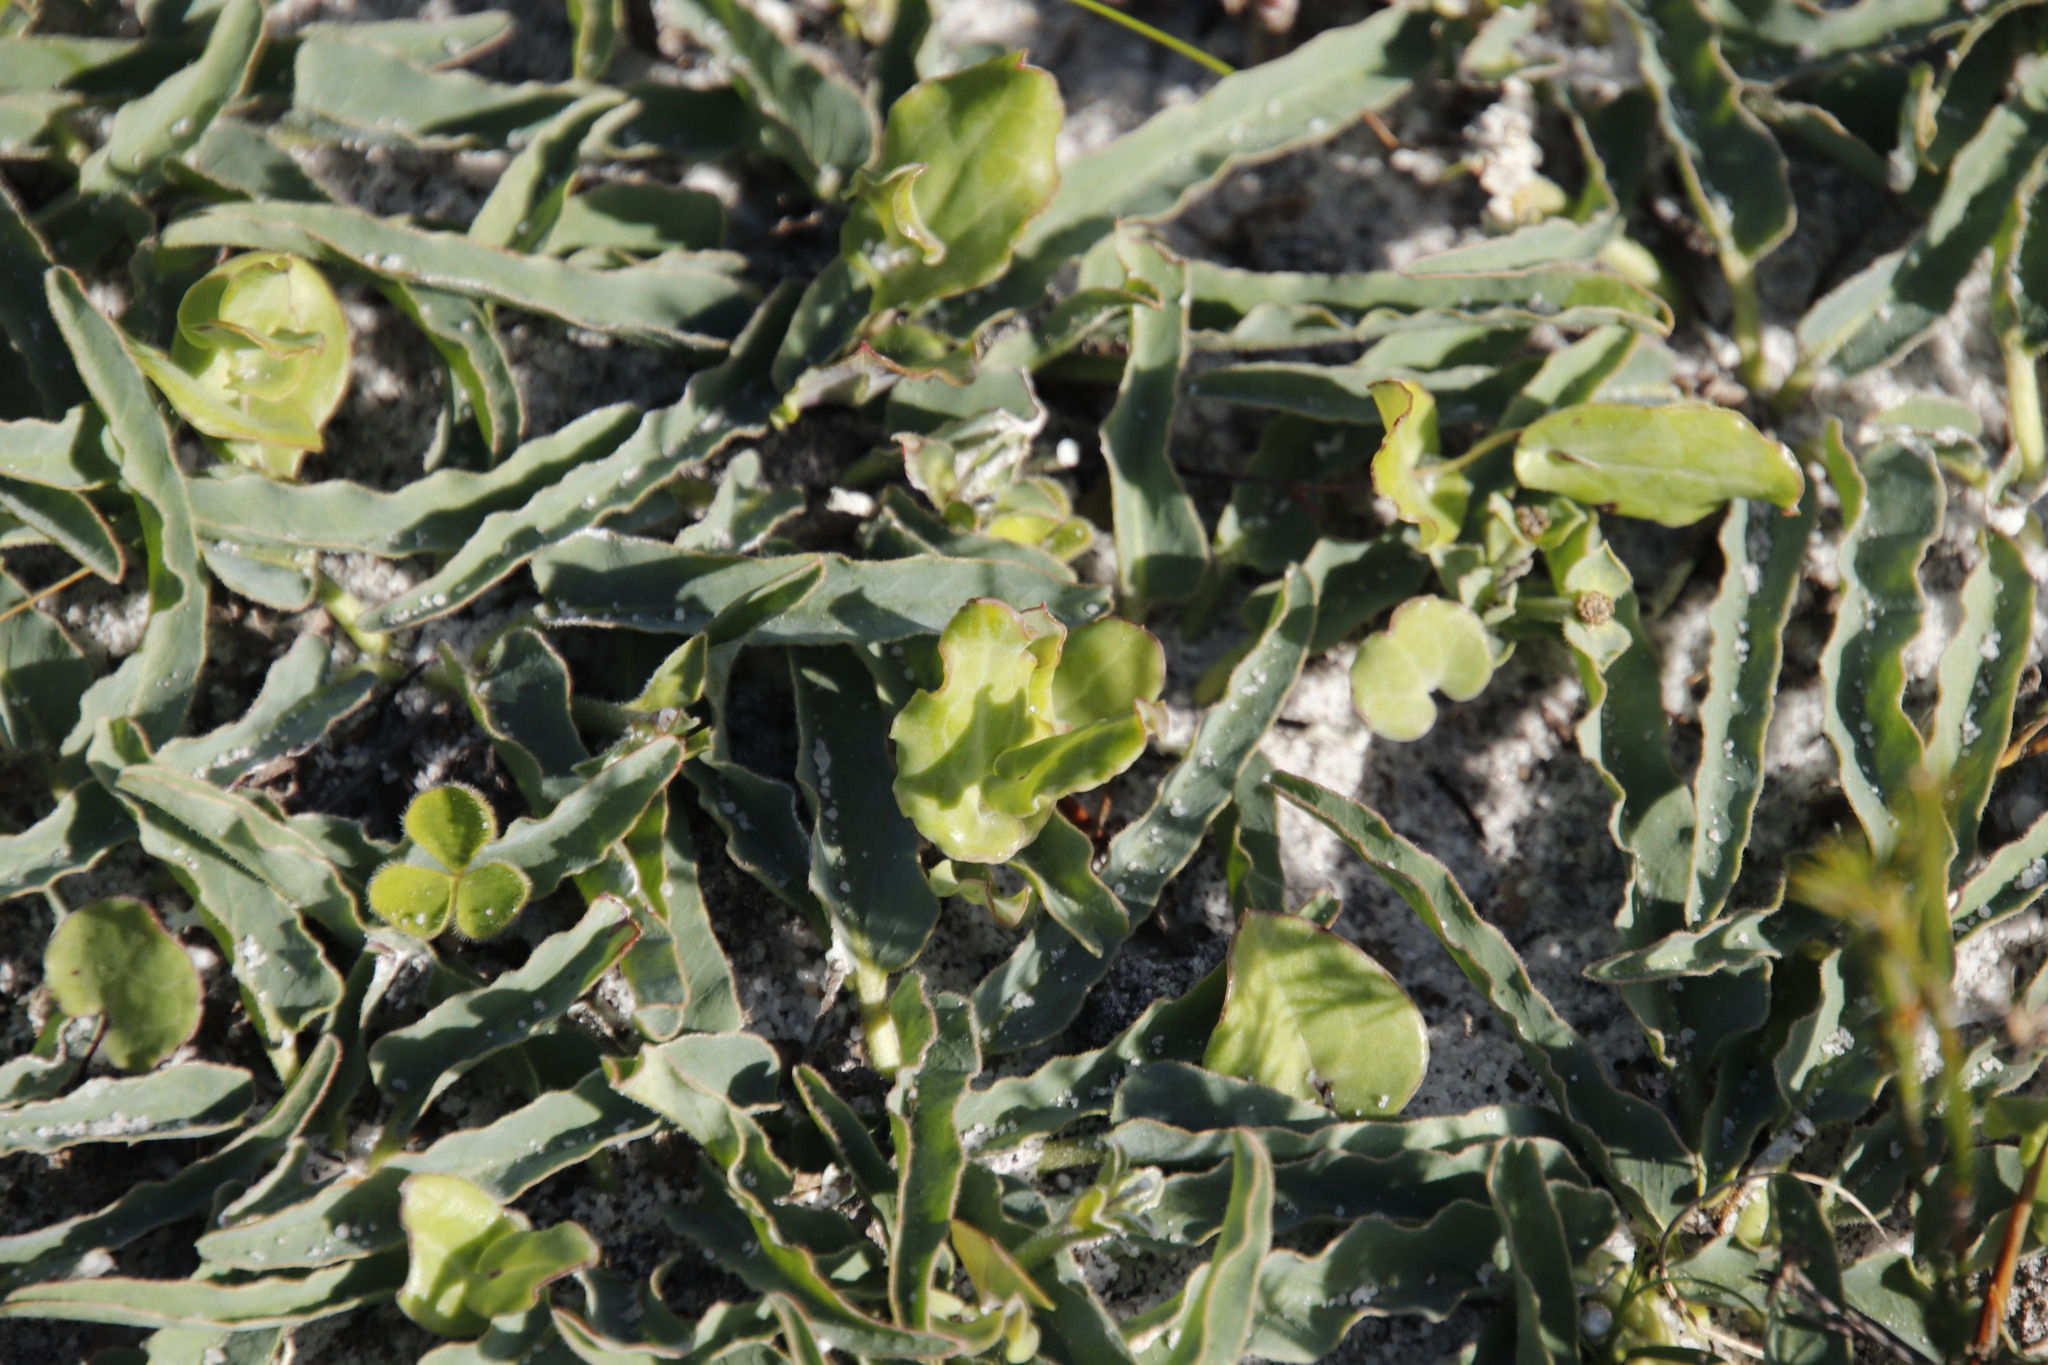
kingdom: Plantae
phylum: Tracheophyta
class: Magnoliopsida
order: Malpighiales
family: Euphorbiaceae
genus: Euphorbia
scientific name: Euphorbia tuberosa
